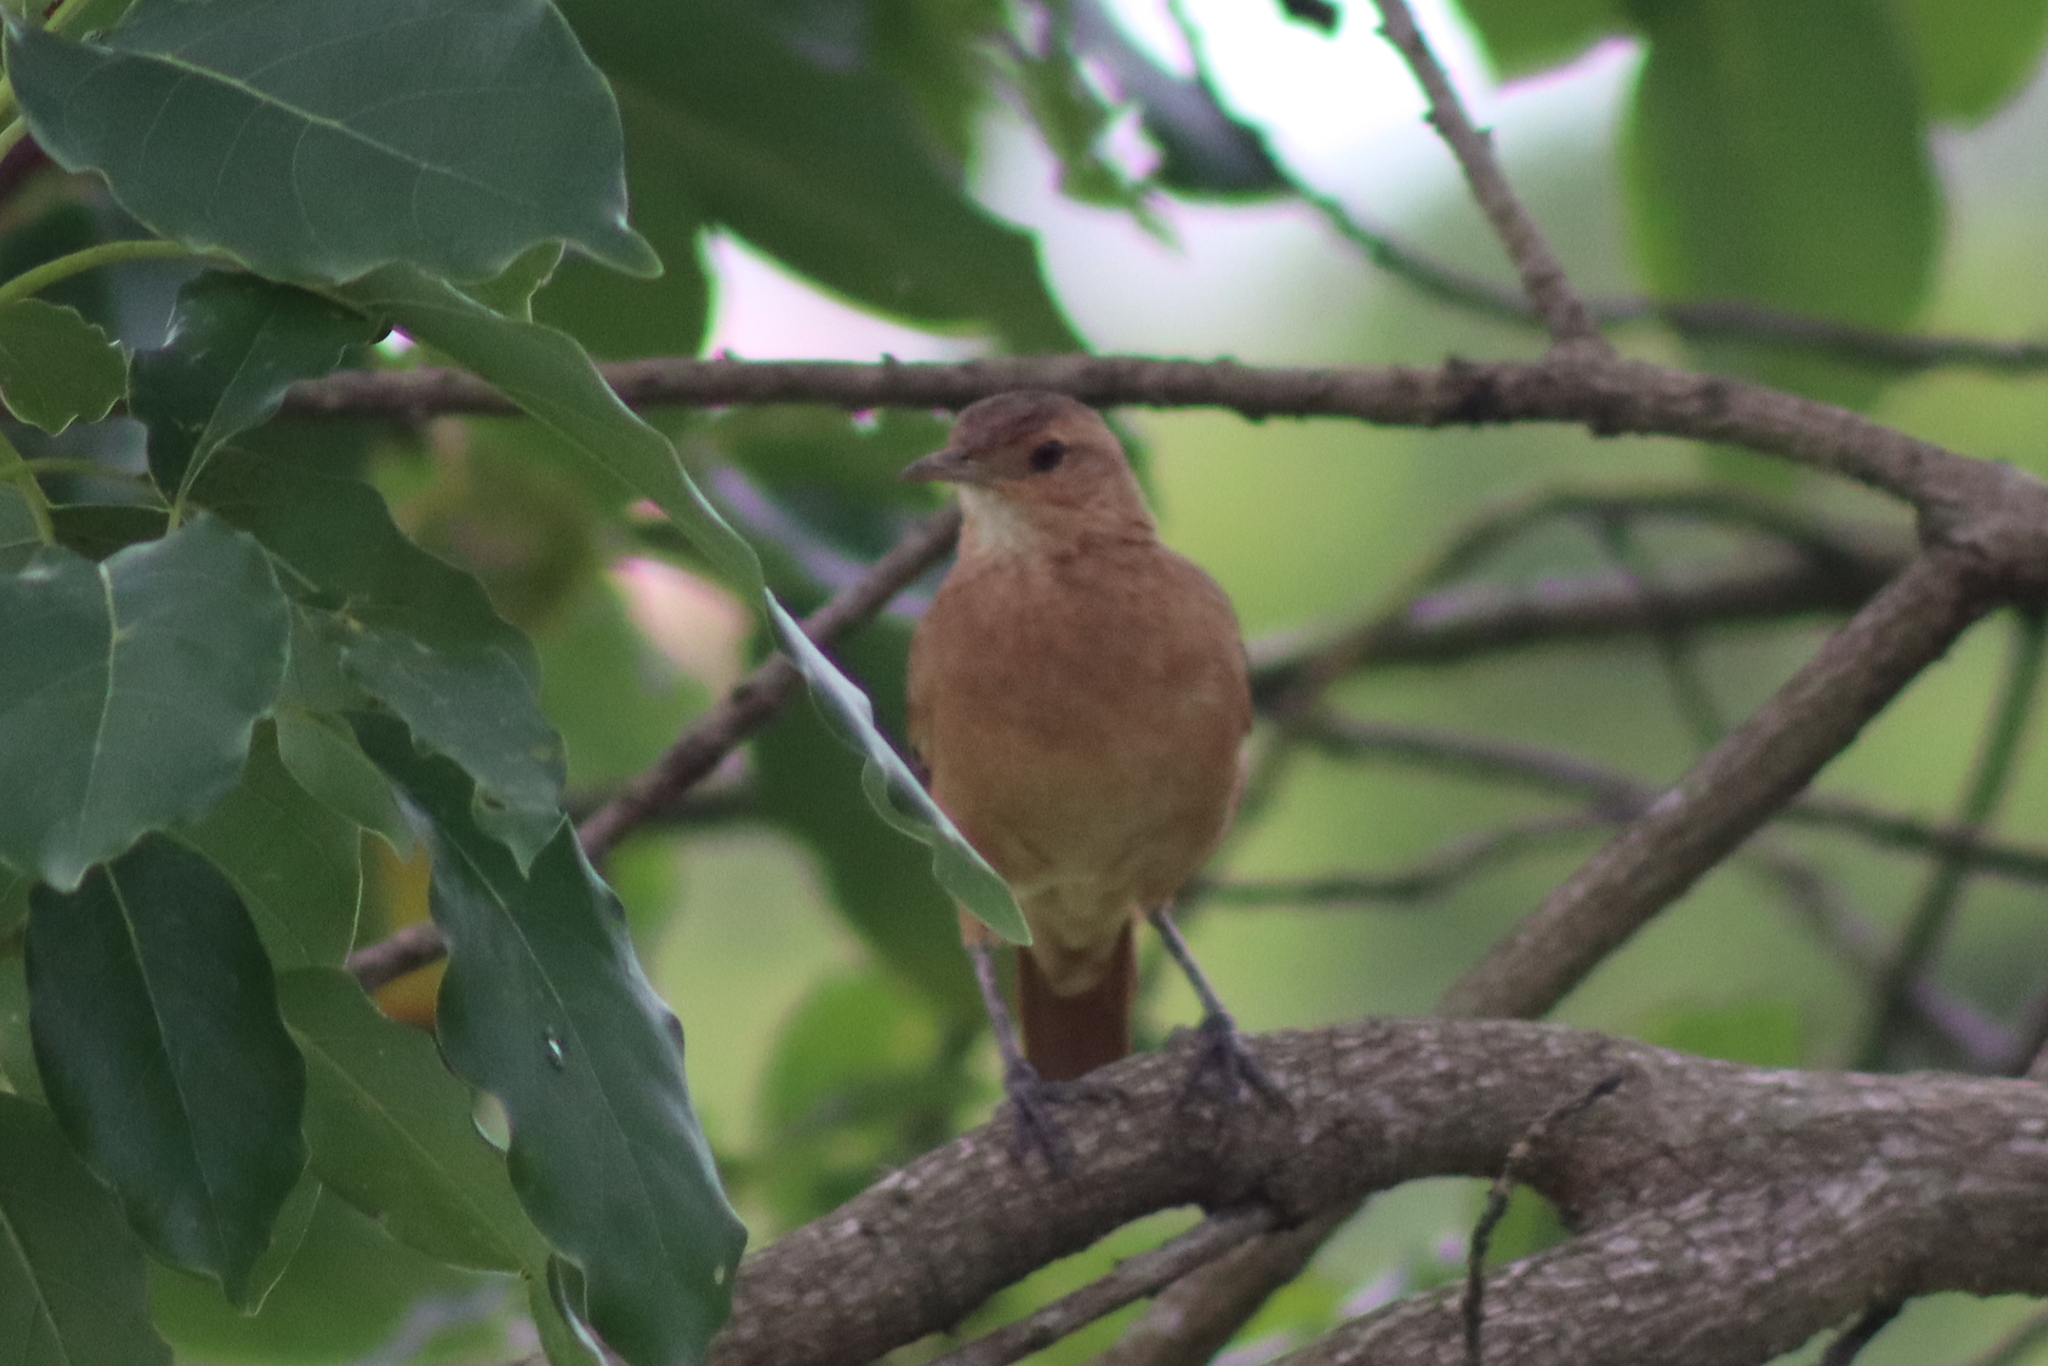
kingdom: Animalia
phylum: Chordata
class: Aves
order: Passeriformes
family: Furnariidae
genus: Furnarius
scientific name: Furnarius rufus
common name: Rufous hornero
